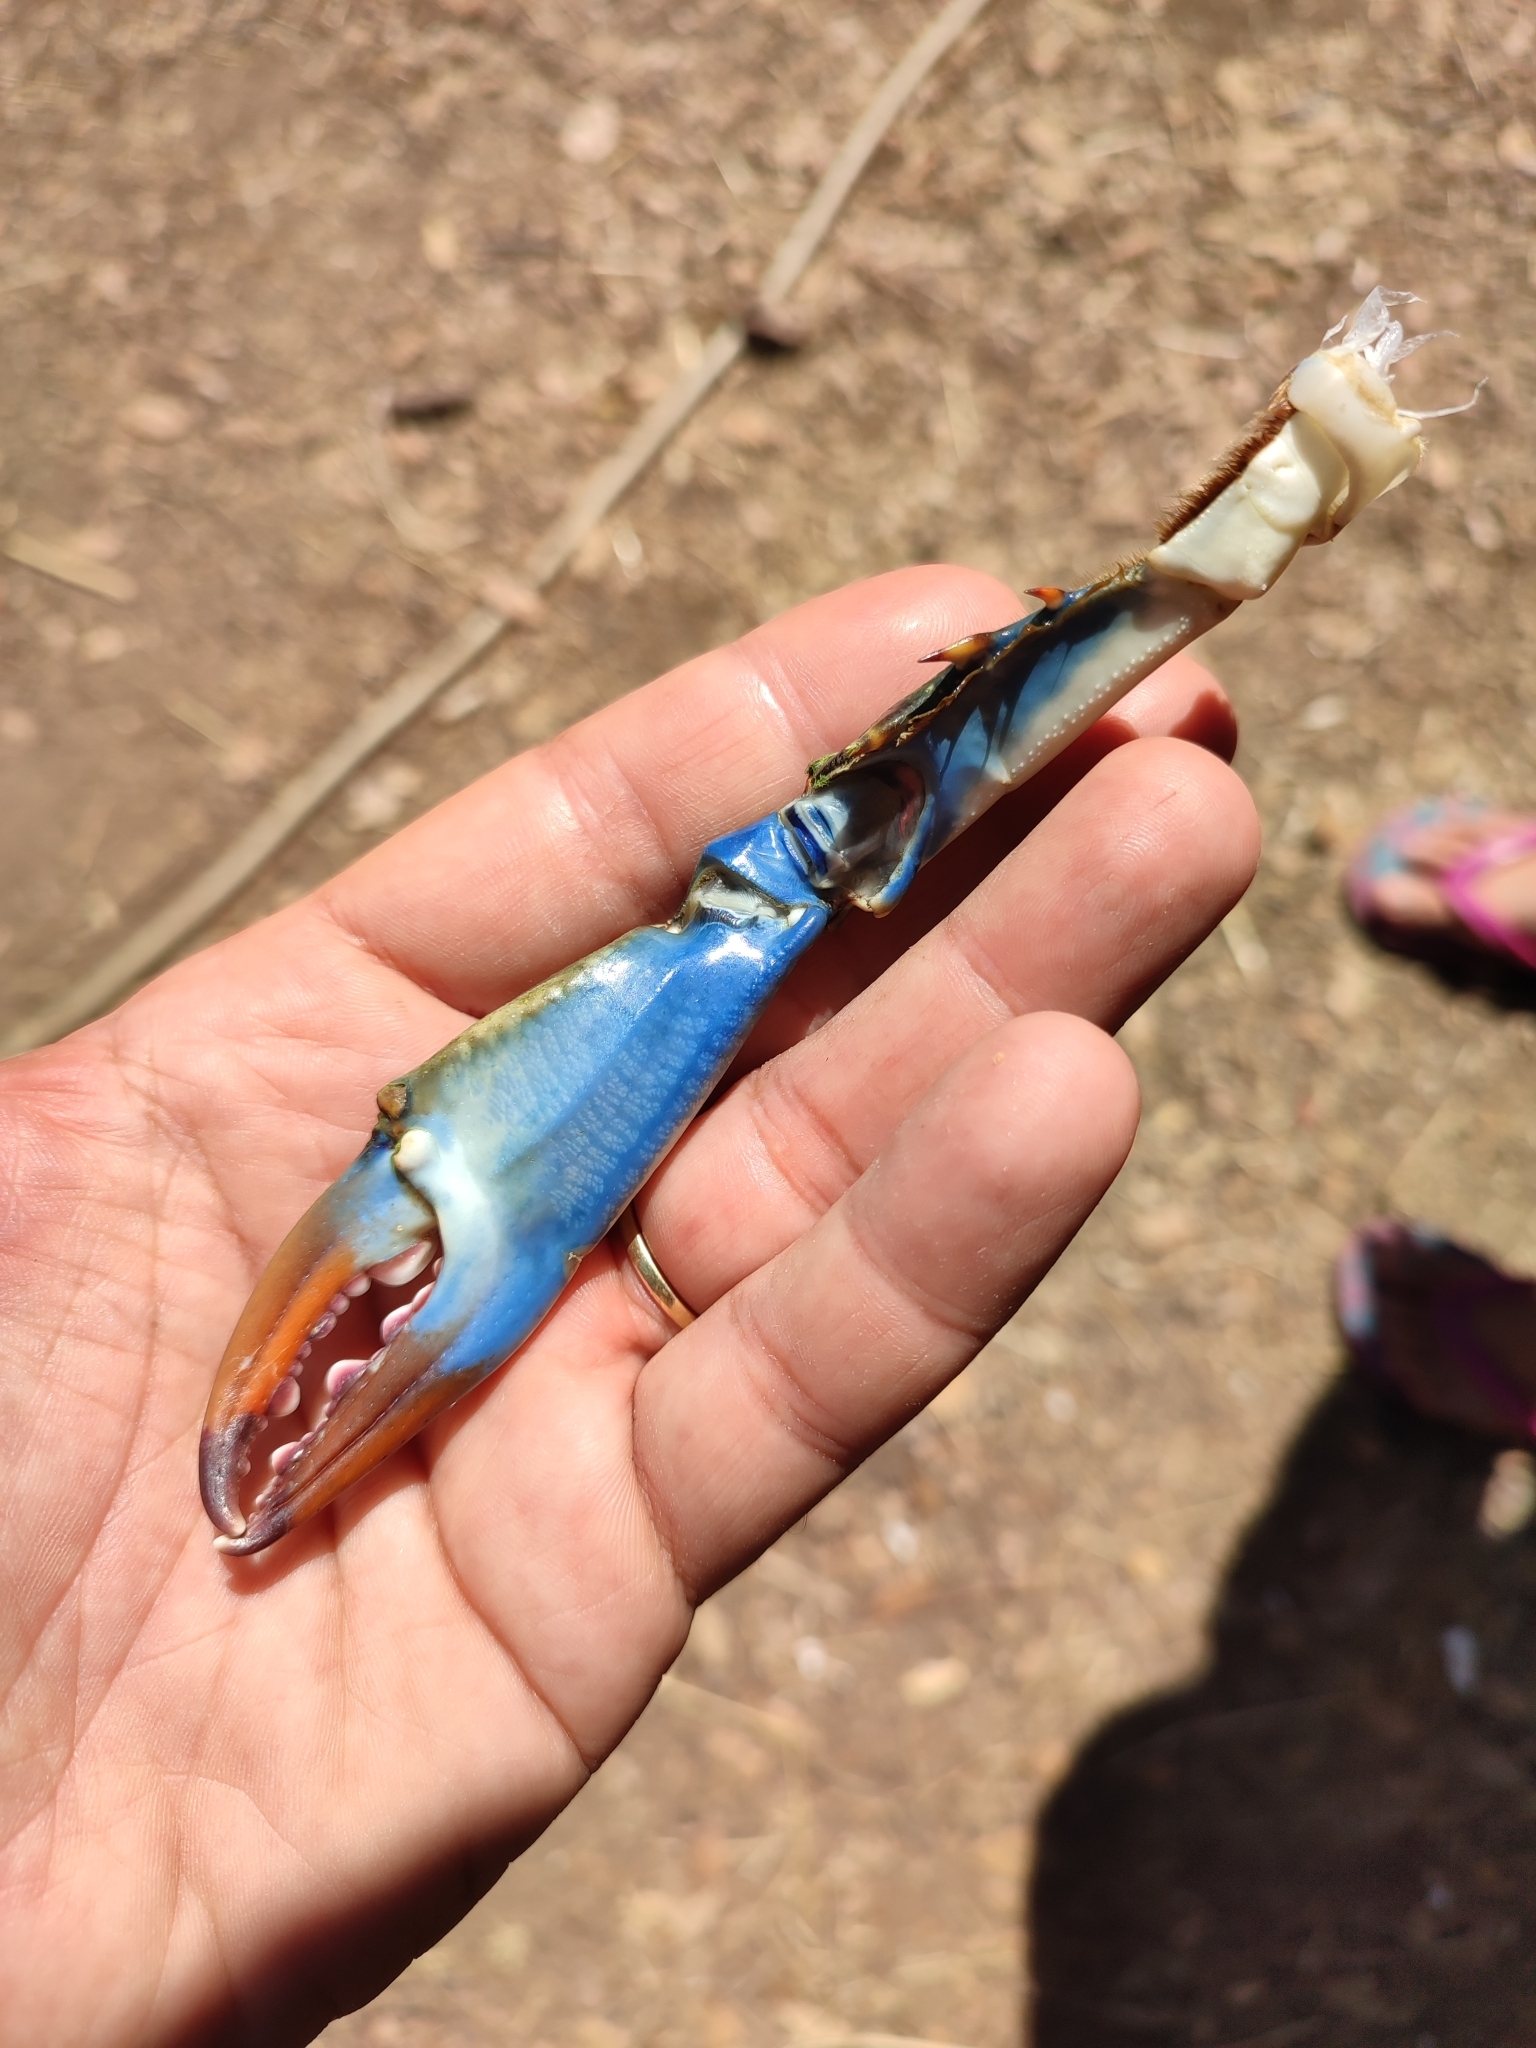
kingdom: Animalia
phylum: Arthropoda
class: Malacostraca
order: Decapoda
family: Portunidae
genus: Callinectes
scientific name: Callinectes sapidus
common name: Blue crab
